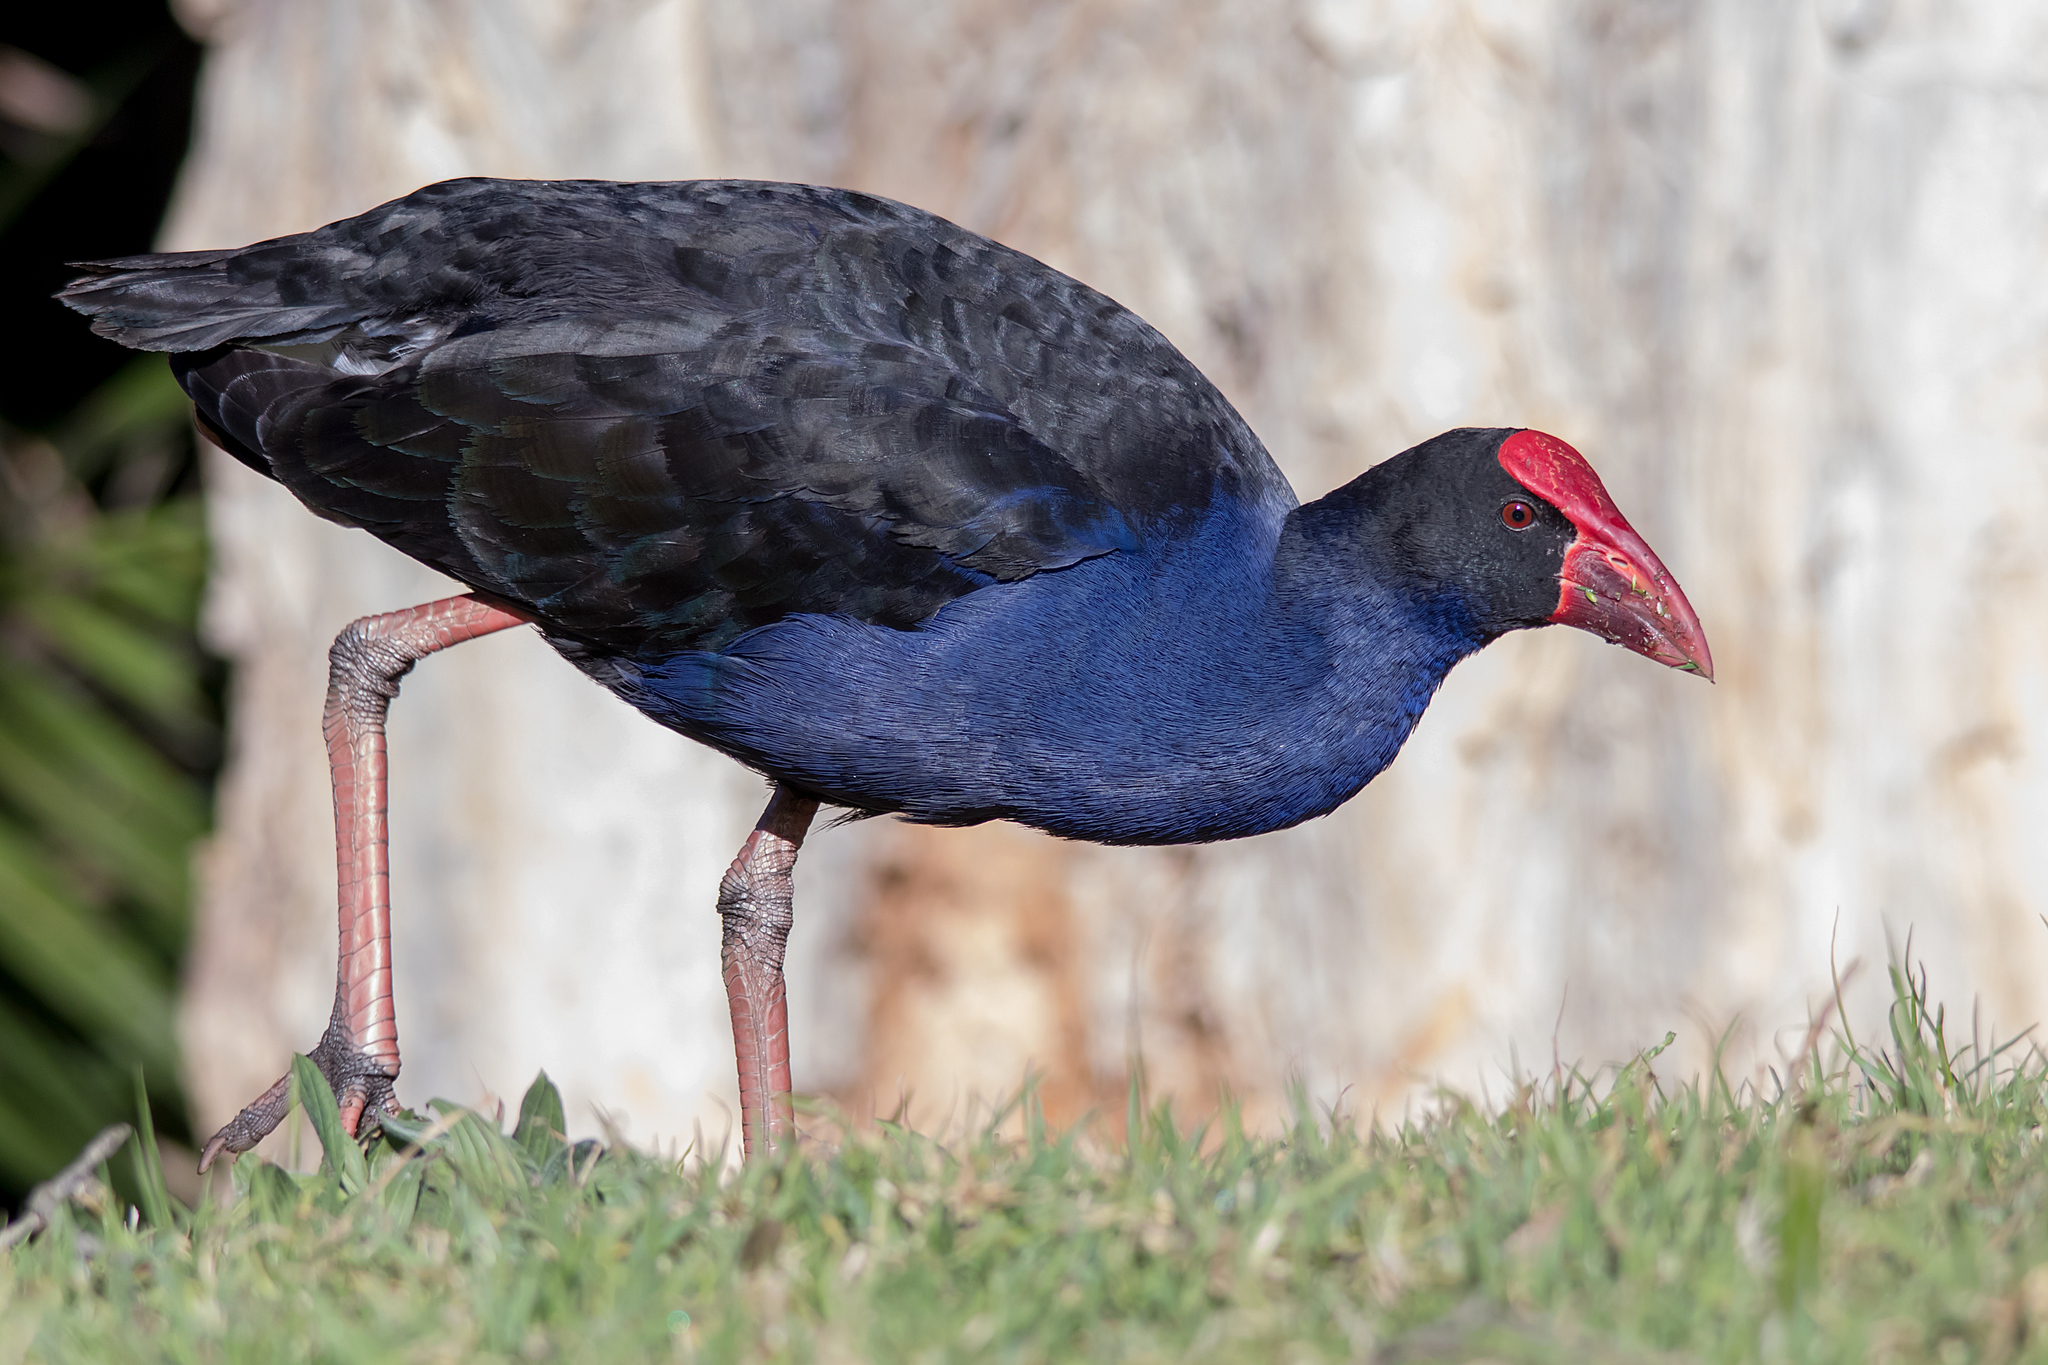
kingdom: Animalia
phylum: Chordata
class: Aves
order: Gruiformes
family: Rallidae
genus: Porphyrio
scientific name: Porphyrio melanotus
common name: Australasian swamphen
